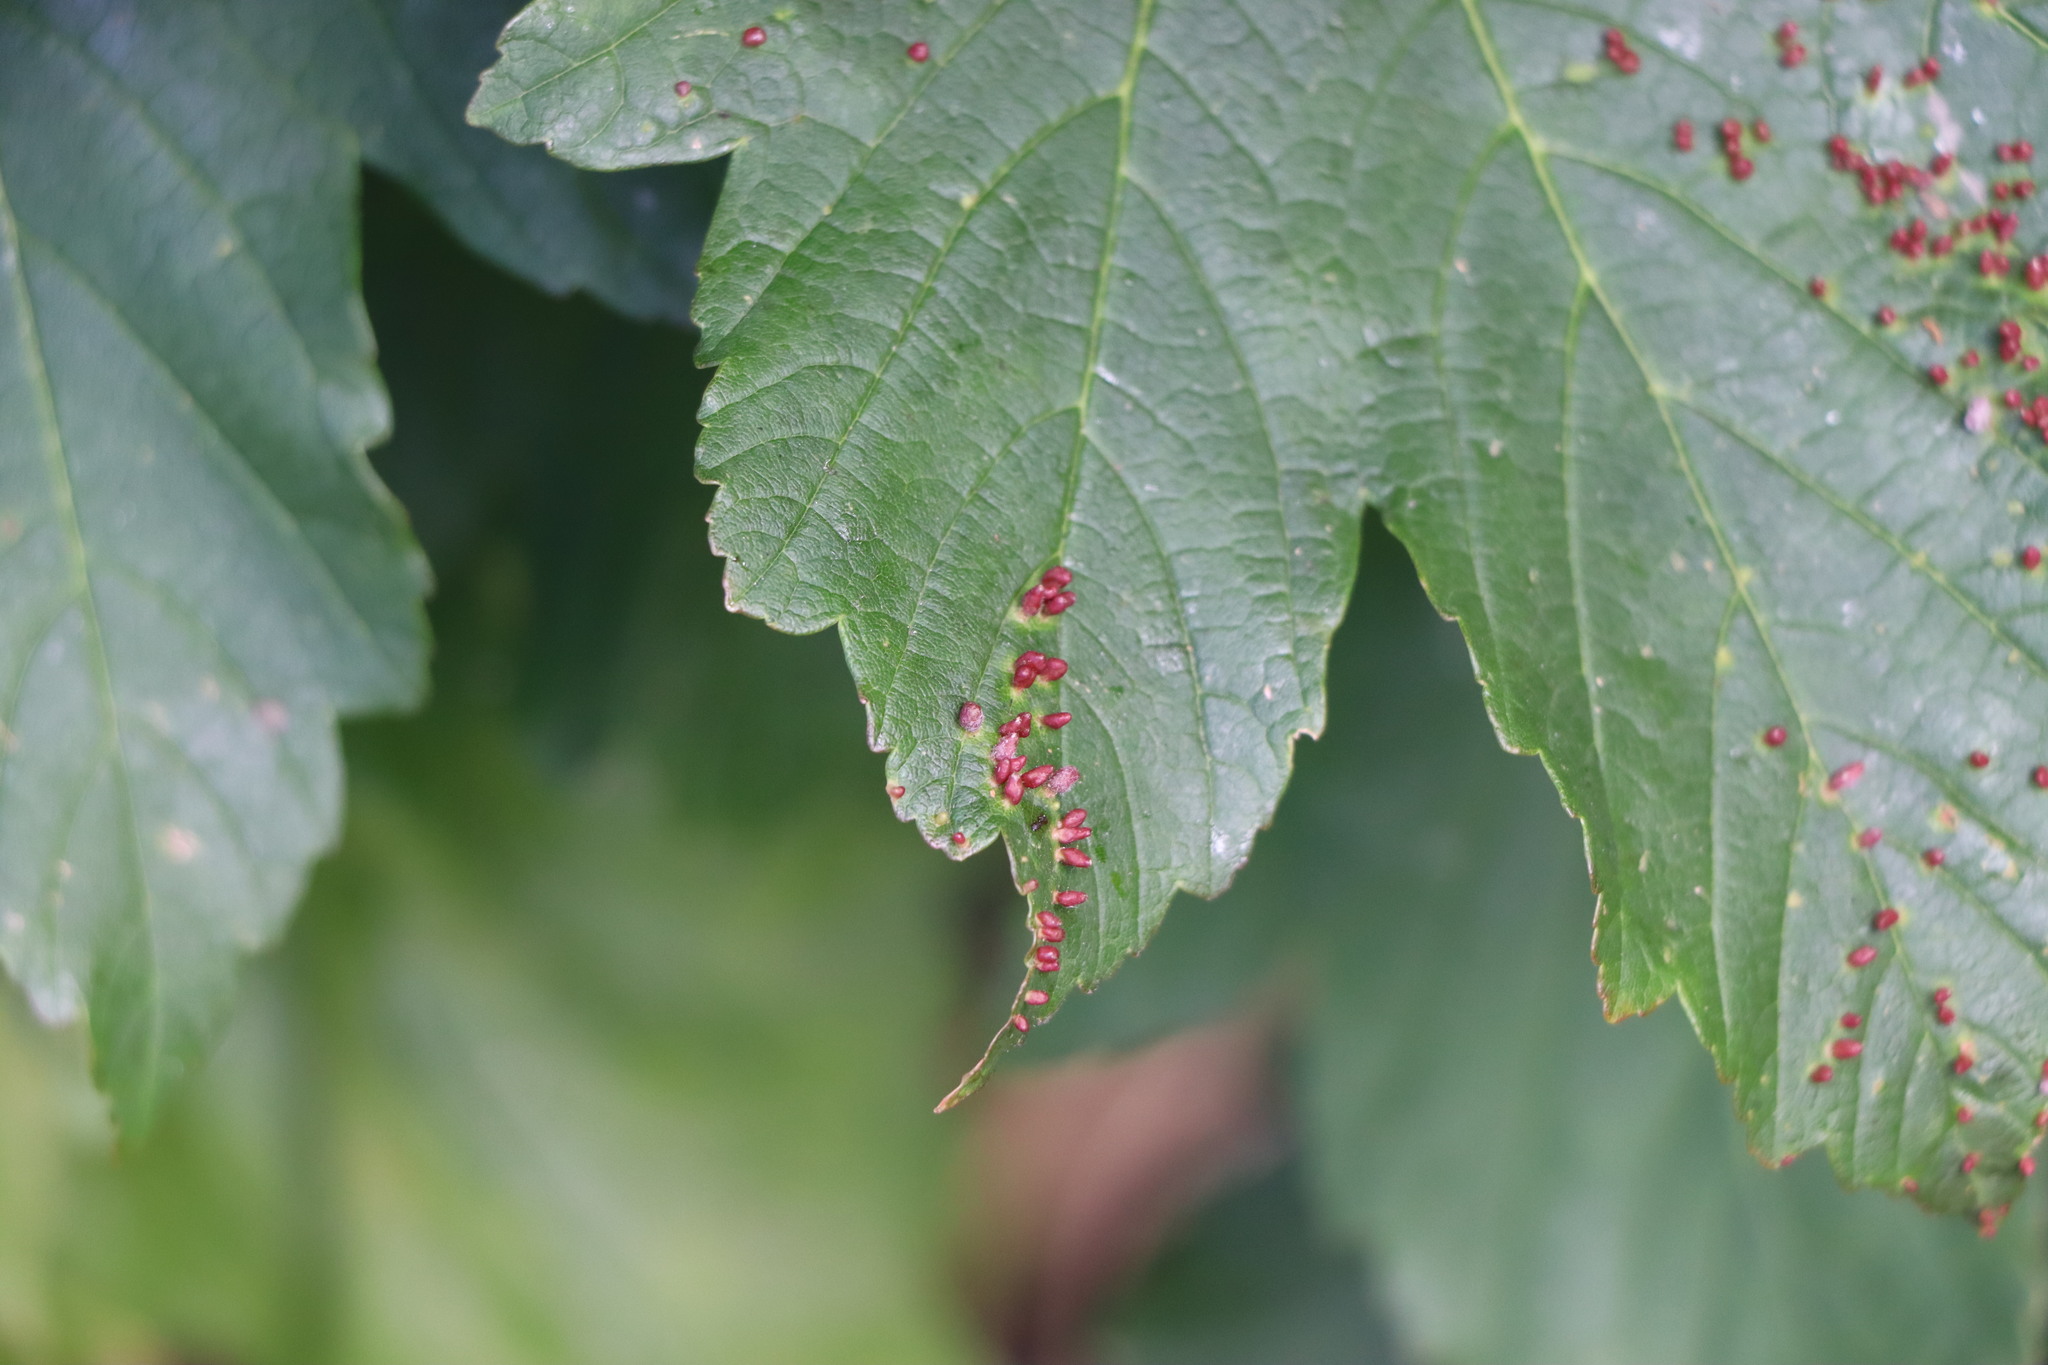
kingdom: Animalia
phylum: Arthropoda
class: Arachnida
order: Trombidiformes
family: Eriophyidae
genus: Aceria
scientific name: Aceria cephaloneus
